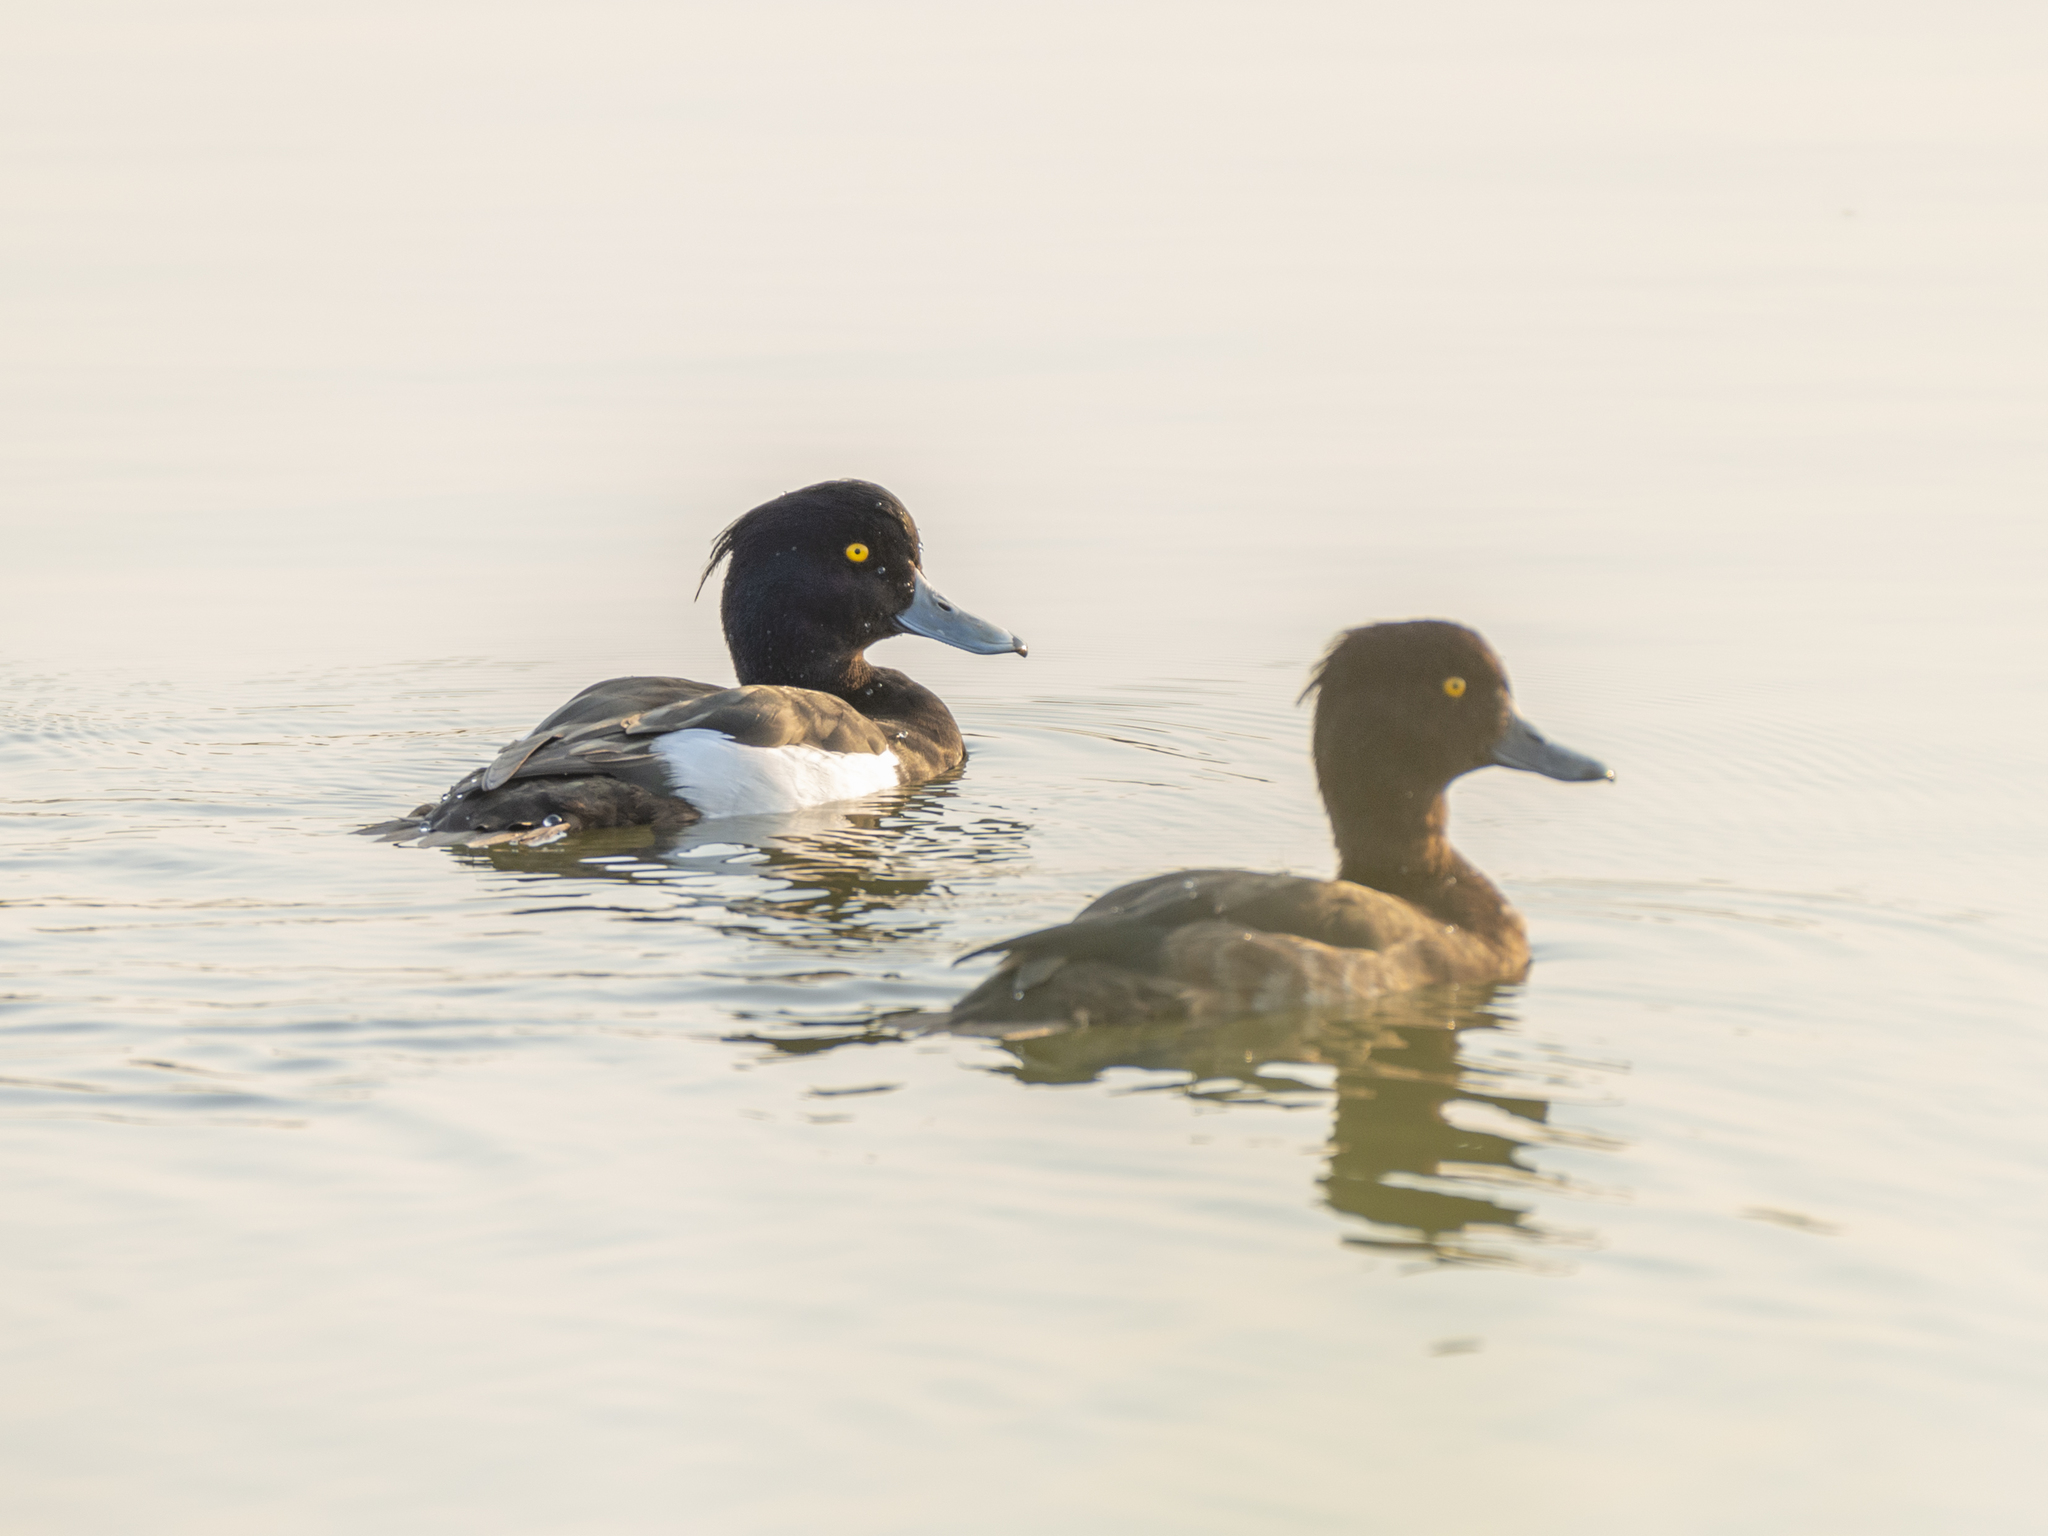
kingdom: Animalia
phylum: Chordata
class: Aves
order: Anseriformes
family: Anatidae
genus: Aythya
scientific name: Aythya fuligula
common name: Tufted duck
